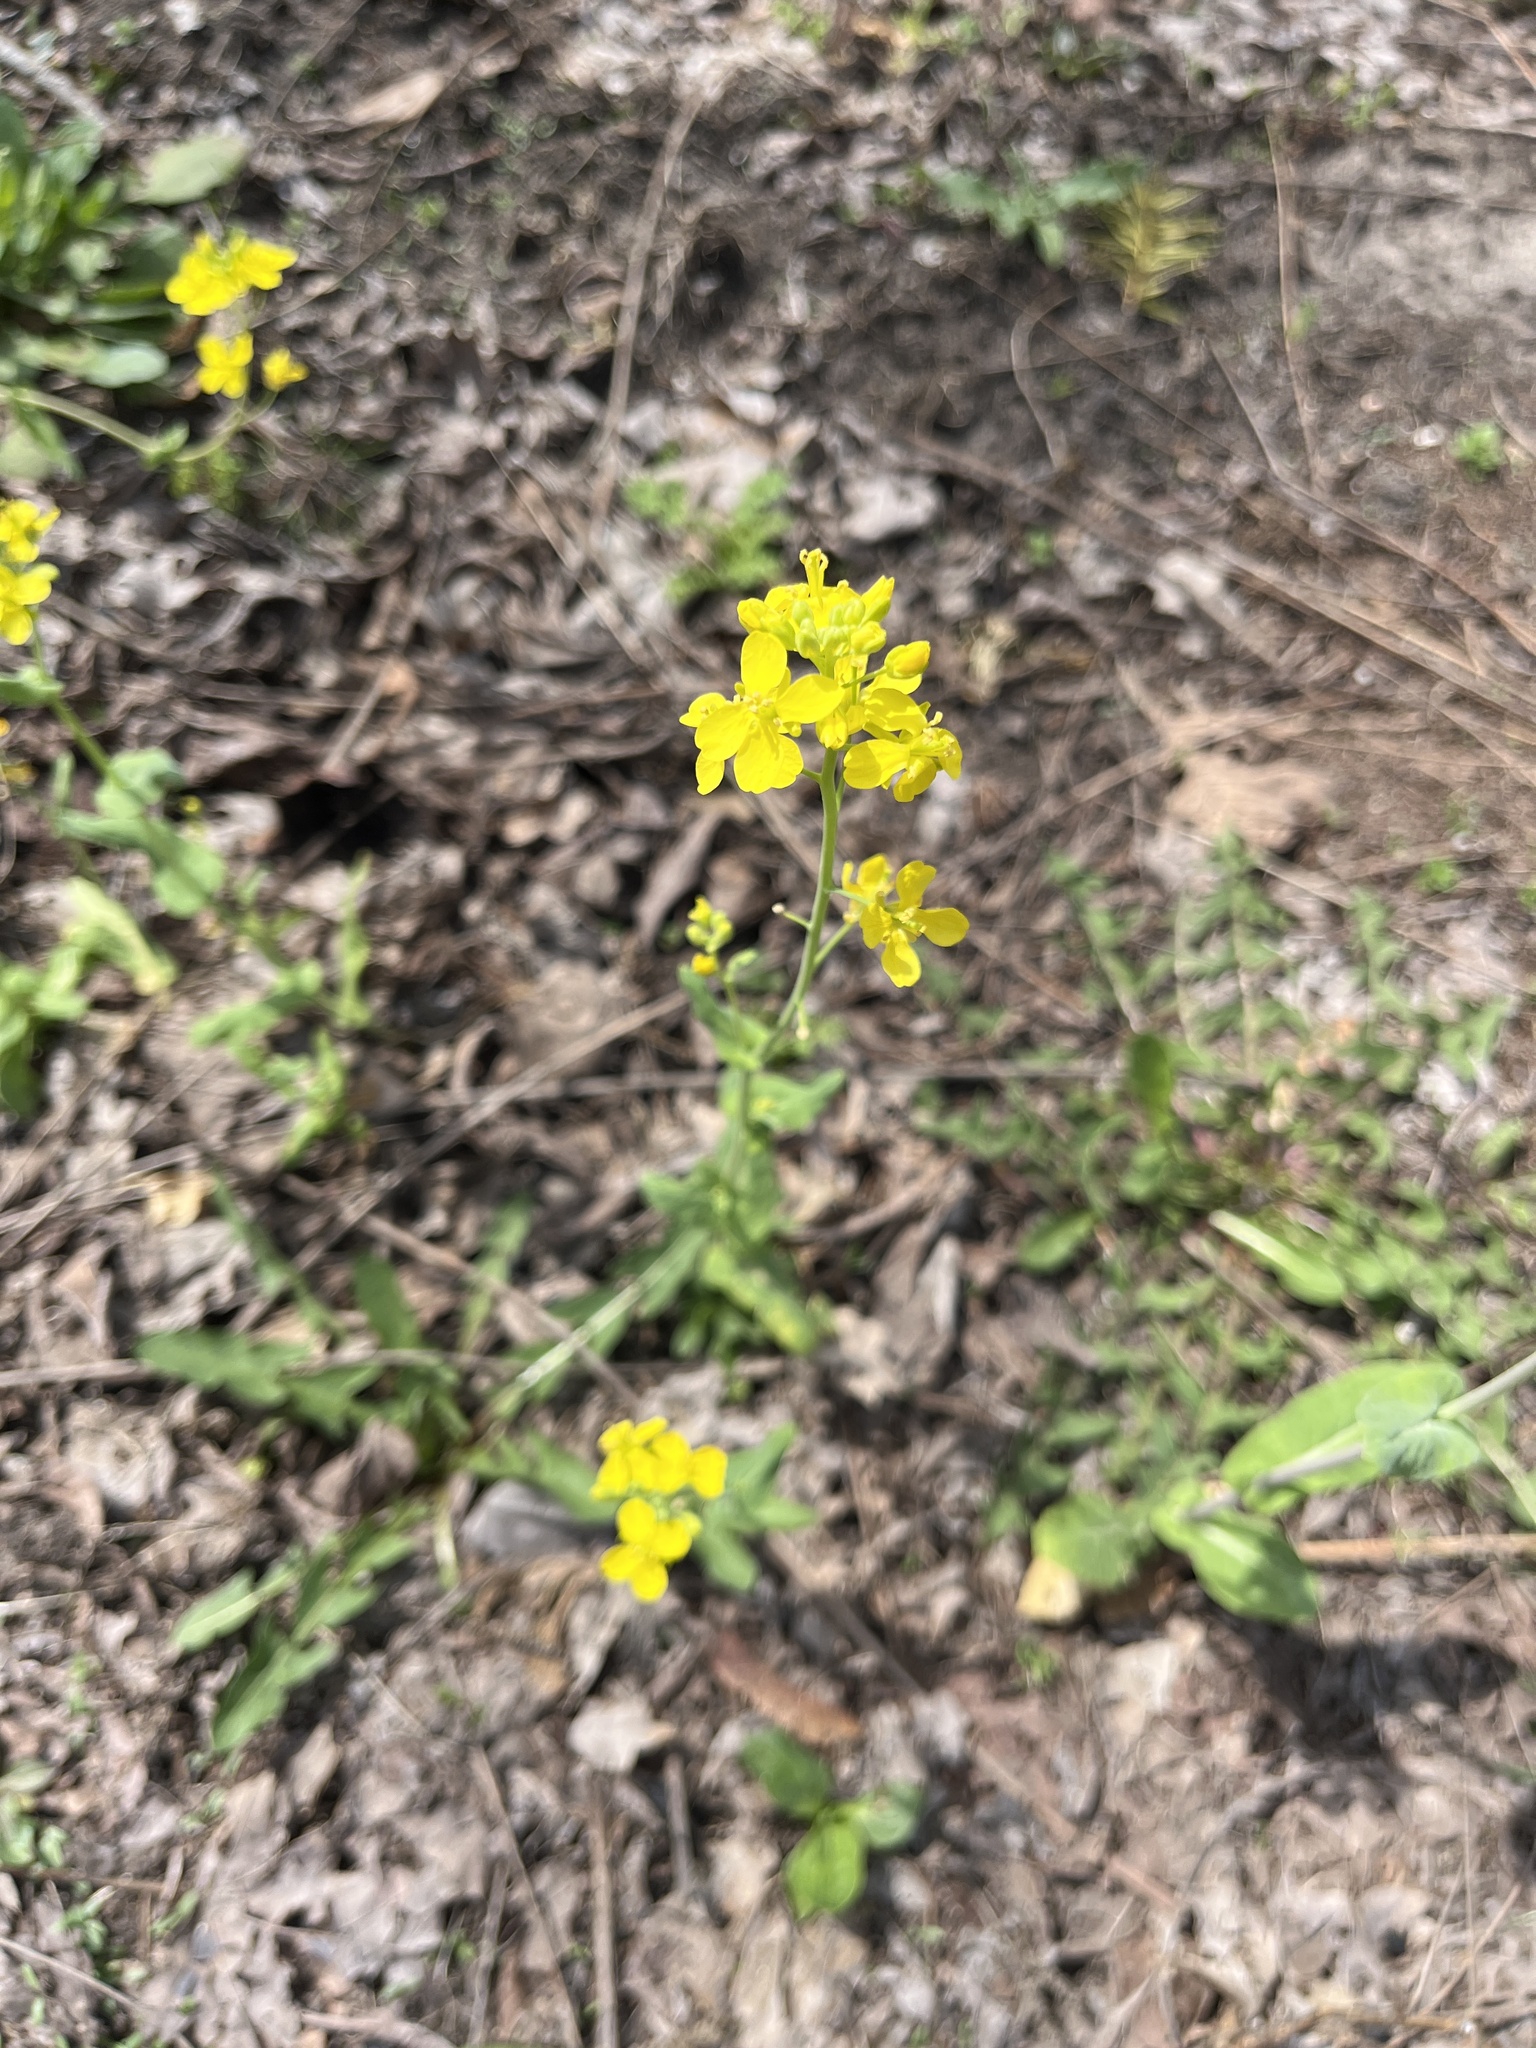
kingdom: Plantae
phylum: Tracheophyta
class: Magnoliopsida
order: Brassicales
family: Brassicaceae
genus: Barbarea
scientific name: Barbarea vulgaris
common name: Cressy-greens
